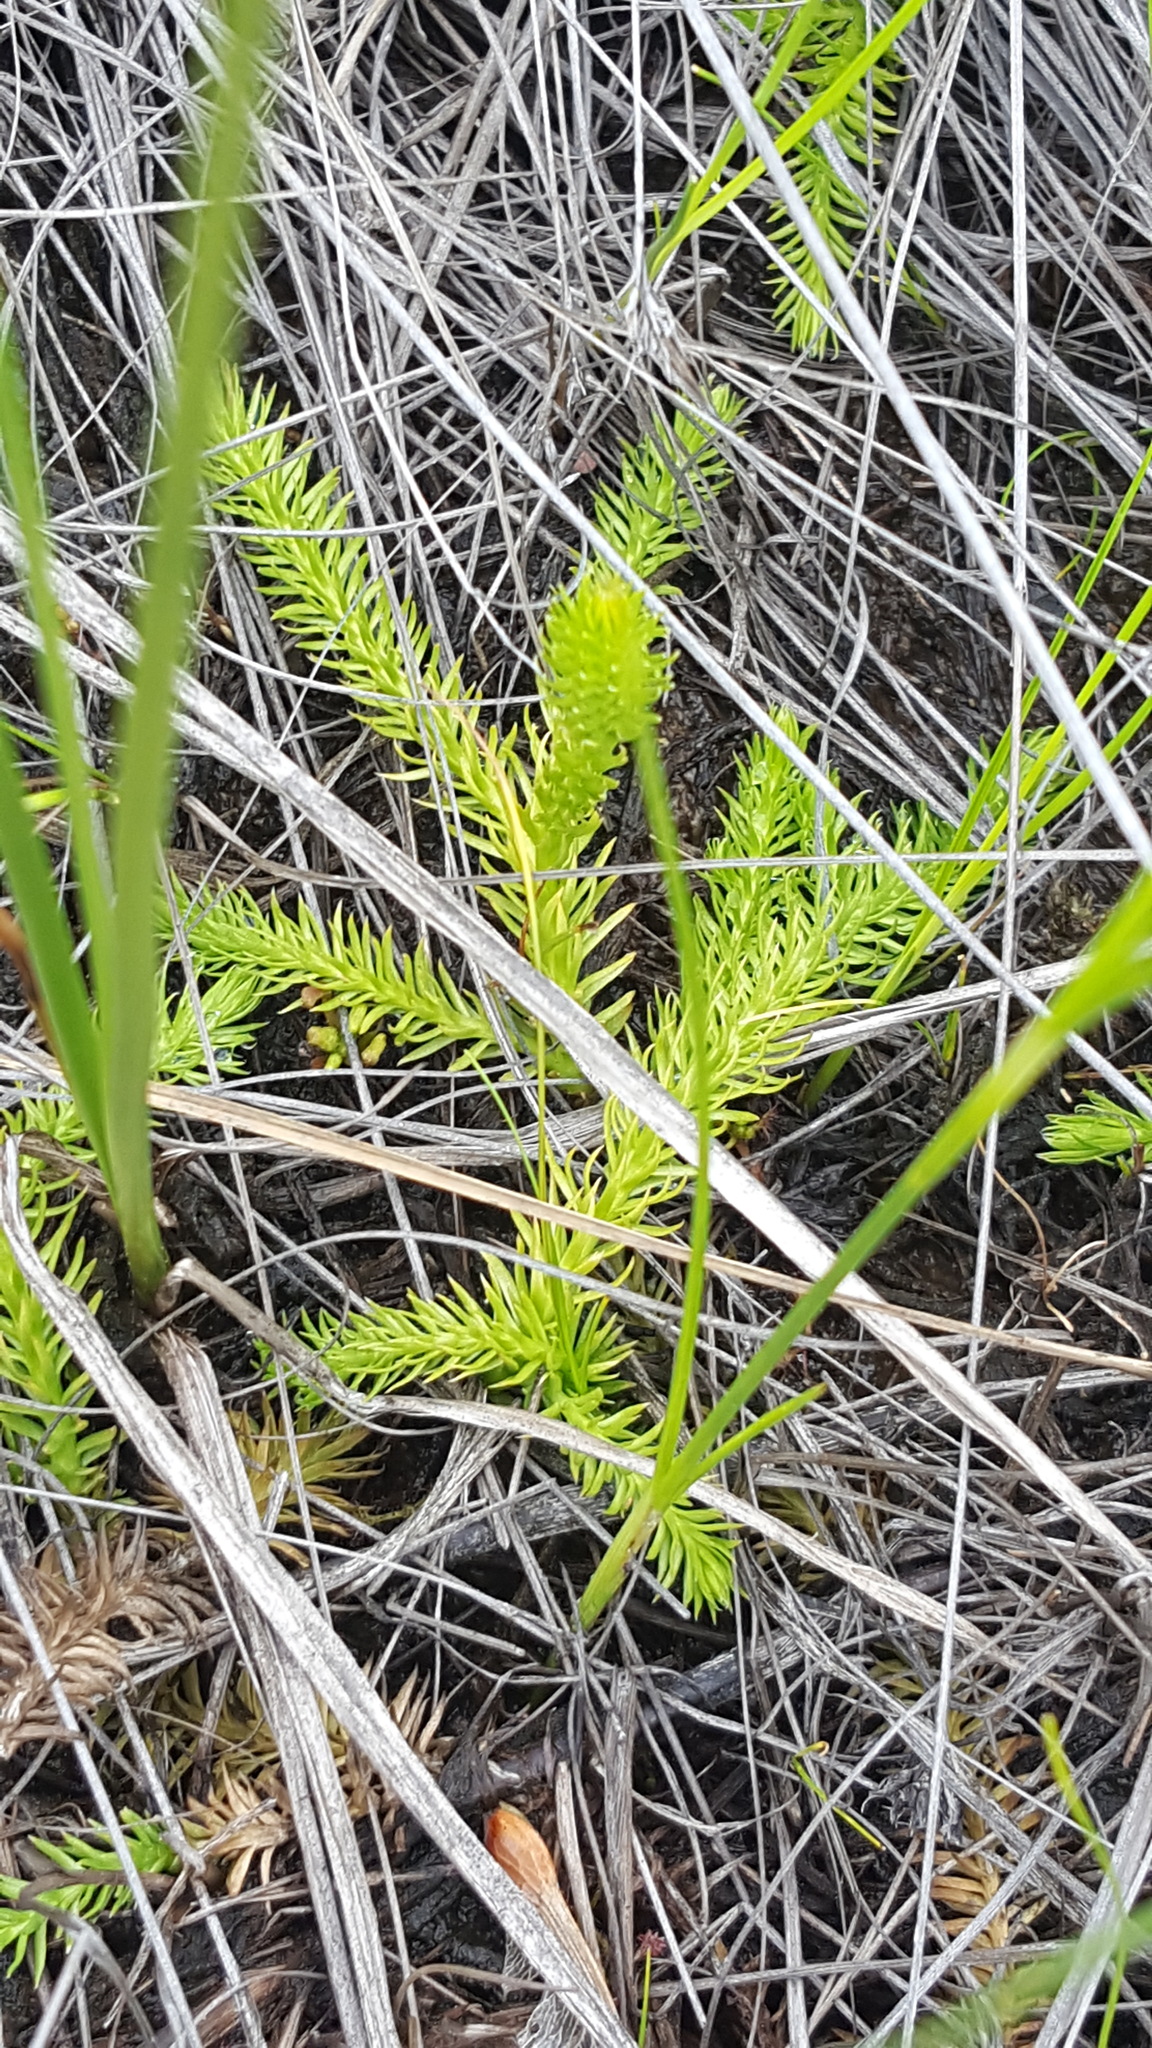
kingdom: Plantae
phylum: Tracheophyta
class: Lycopodiopsida
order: Lycopodiales
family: Lycopodiaceae
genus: Lycopodiella
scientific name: Lycopodiella inundata
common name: Marsh clubmoss
